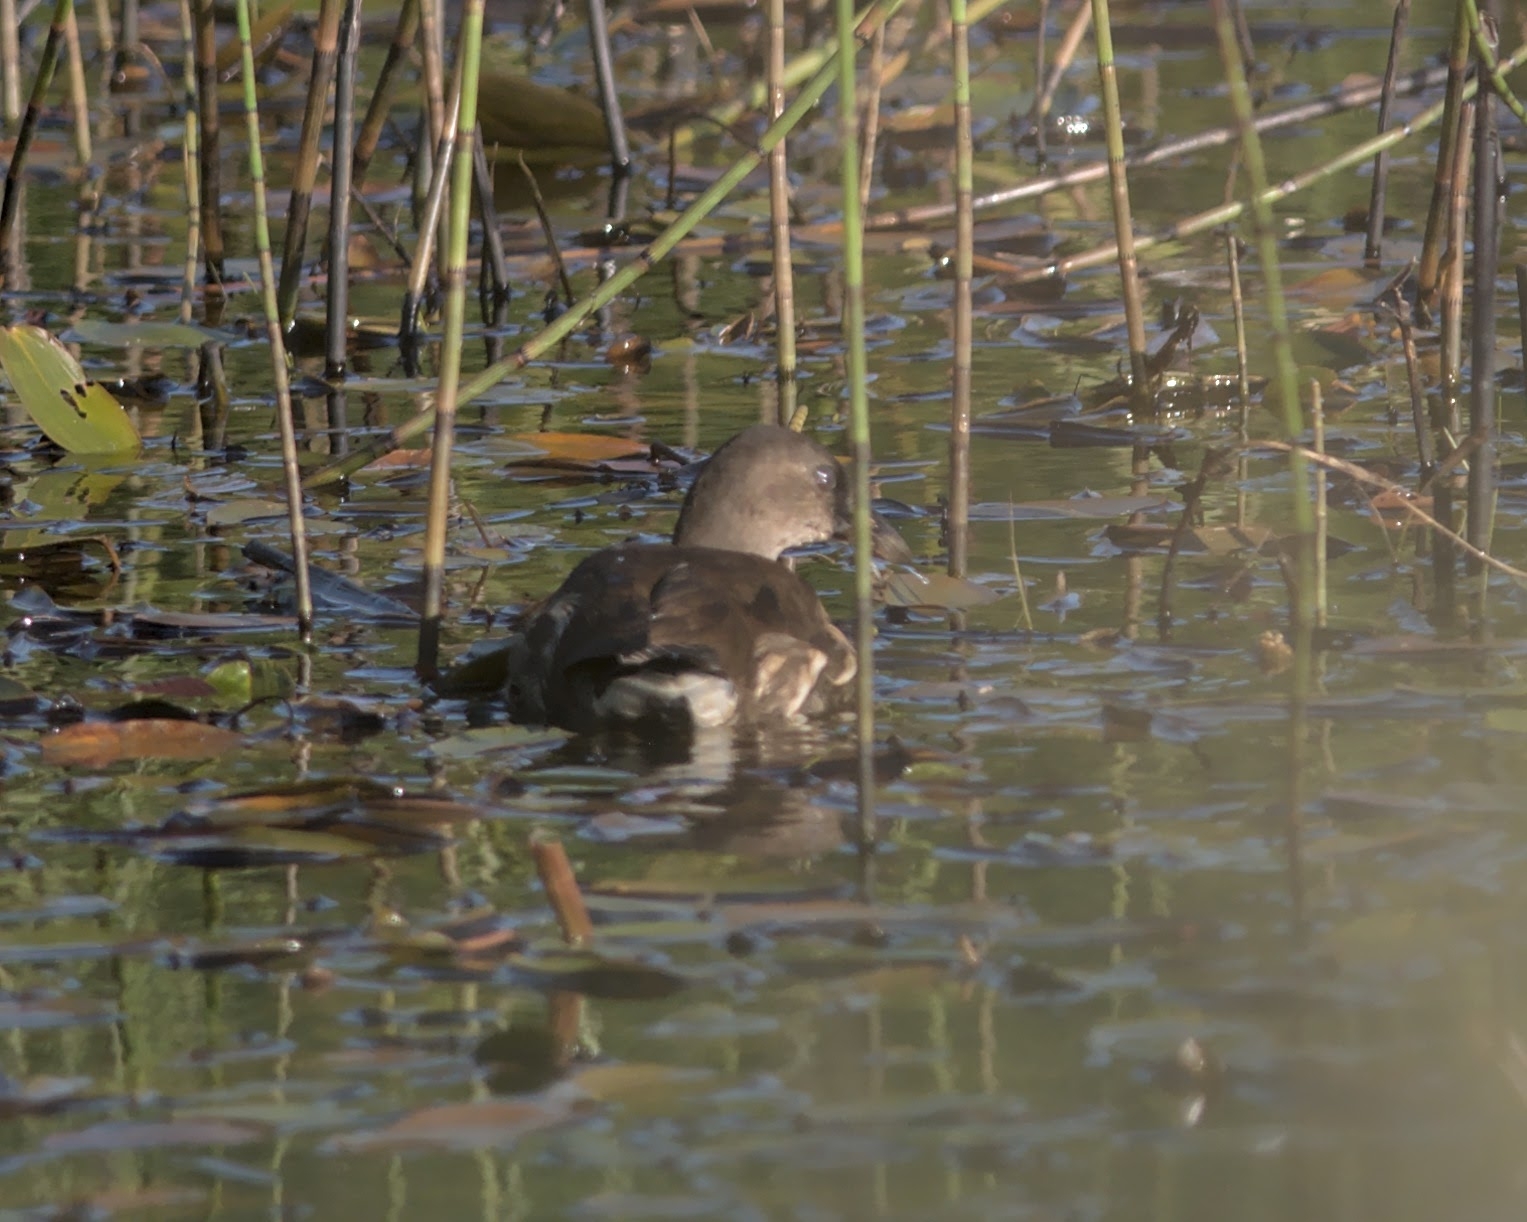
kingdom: Animalia
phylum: Chordata
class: Aves
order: Gruiformes
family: Rallidae
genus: Gallinula
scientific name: Gallinula chloropus
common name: Common moorhen
